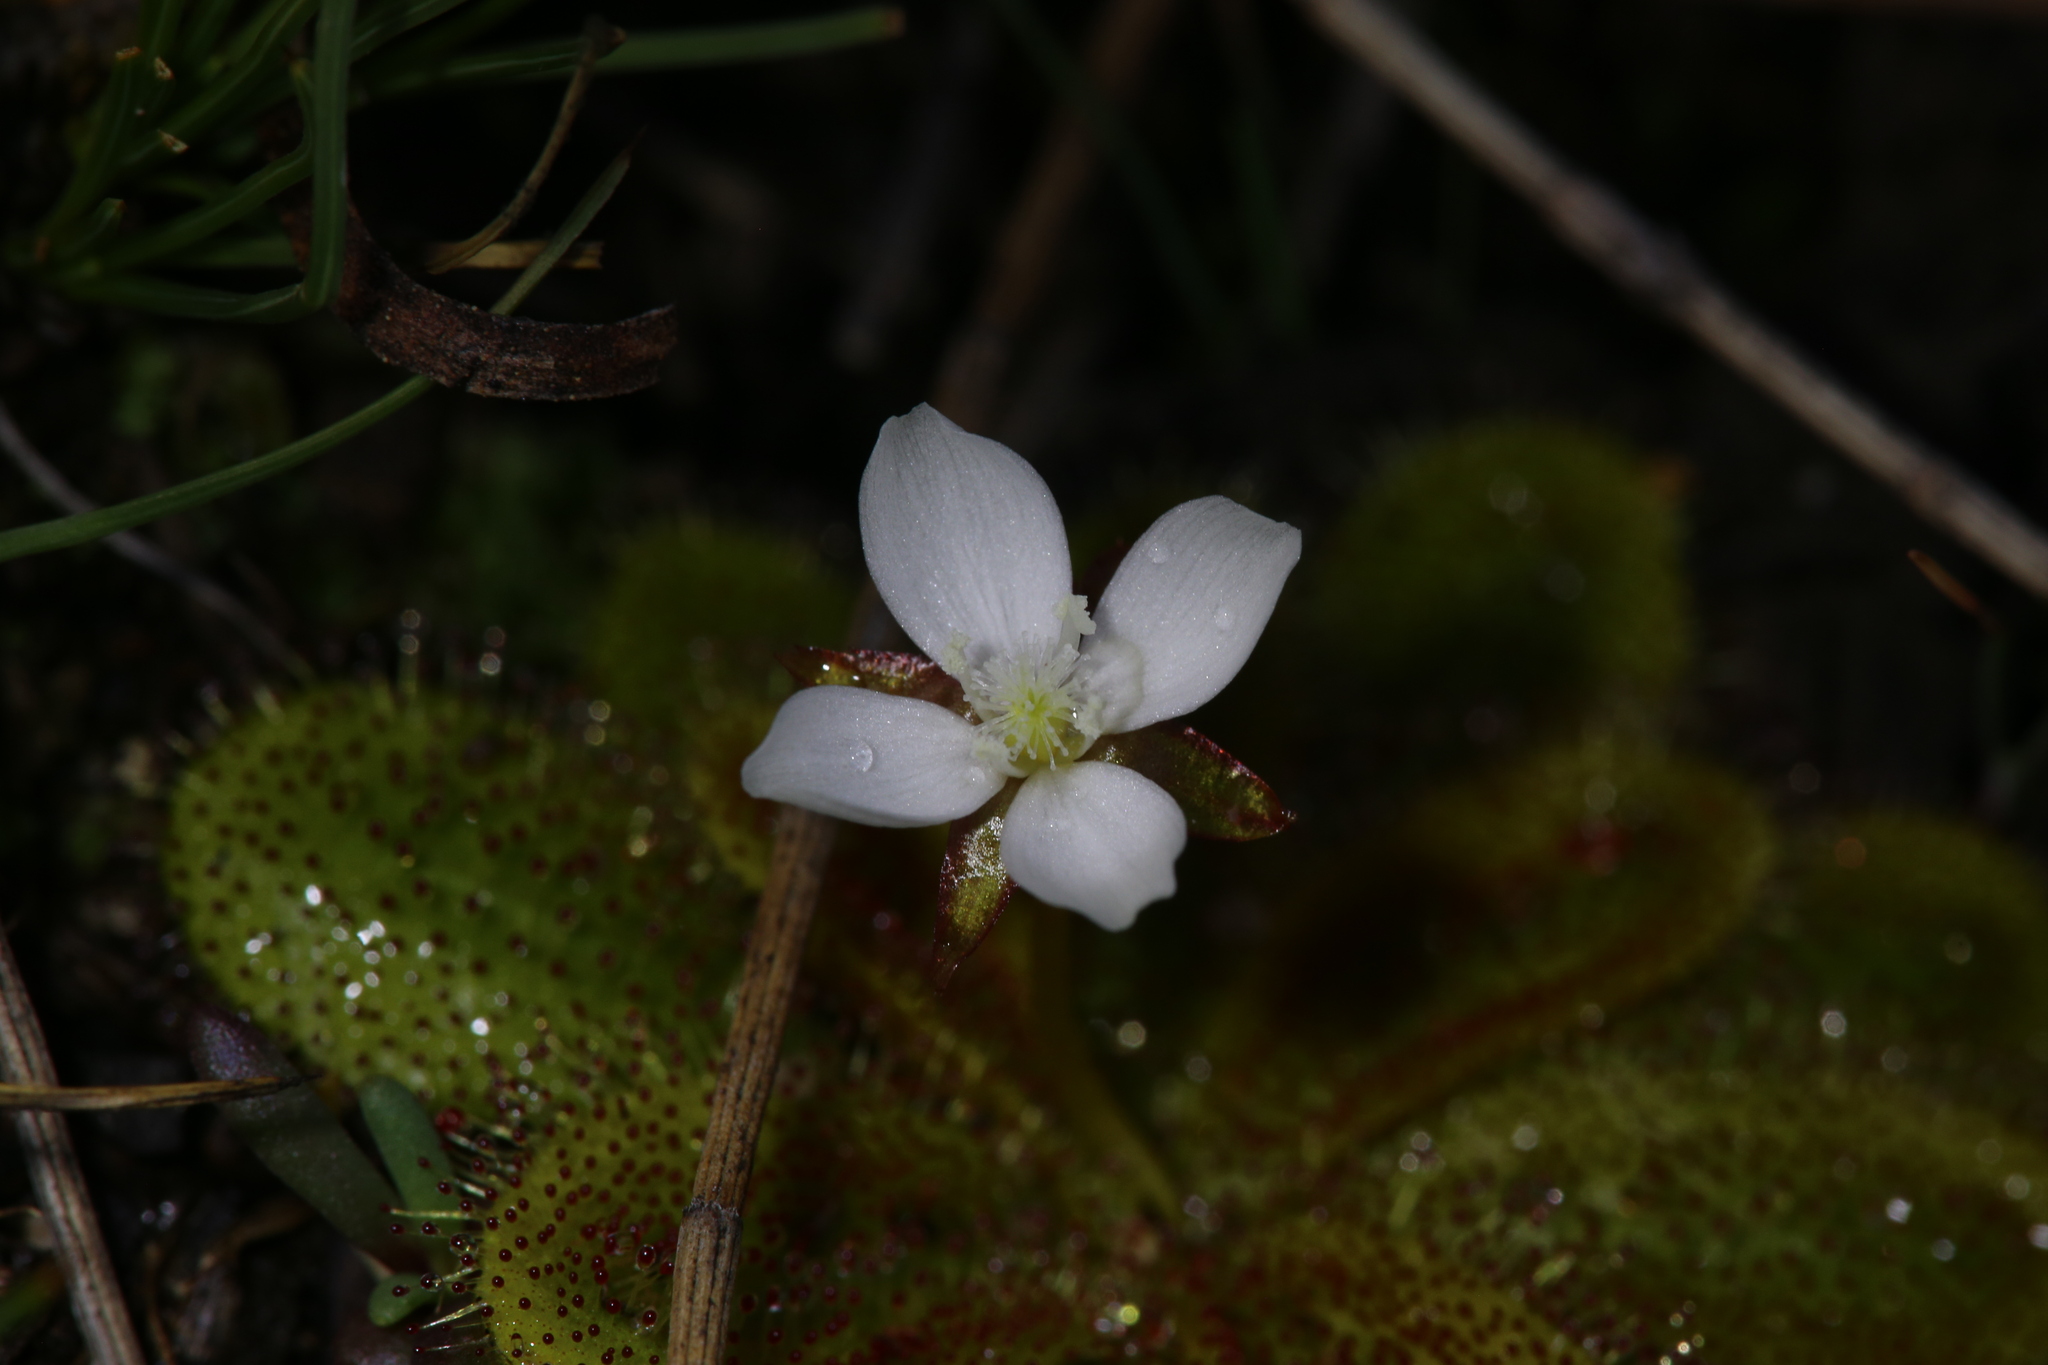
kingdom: Plantae
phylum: Tracheophyta
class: Magnoliopsida
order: Caryophyllales
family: Droseraceae
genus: Drosera
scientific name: Drosera bulbosa
